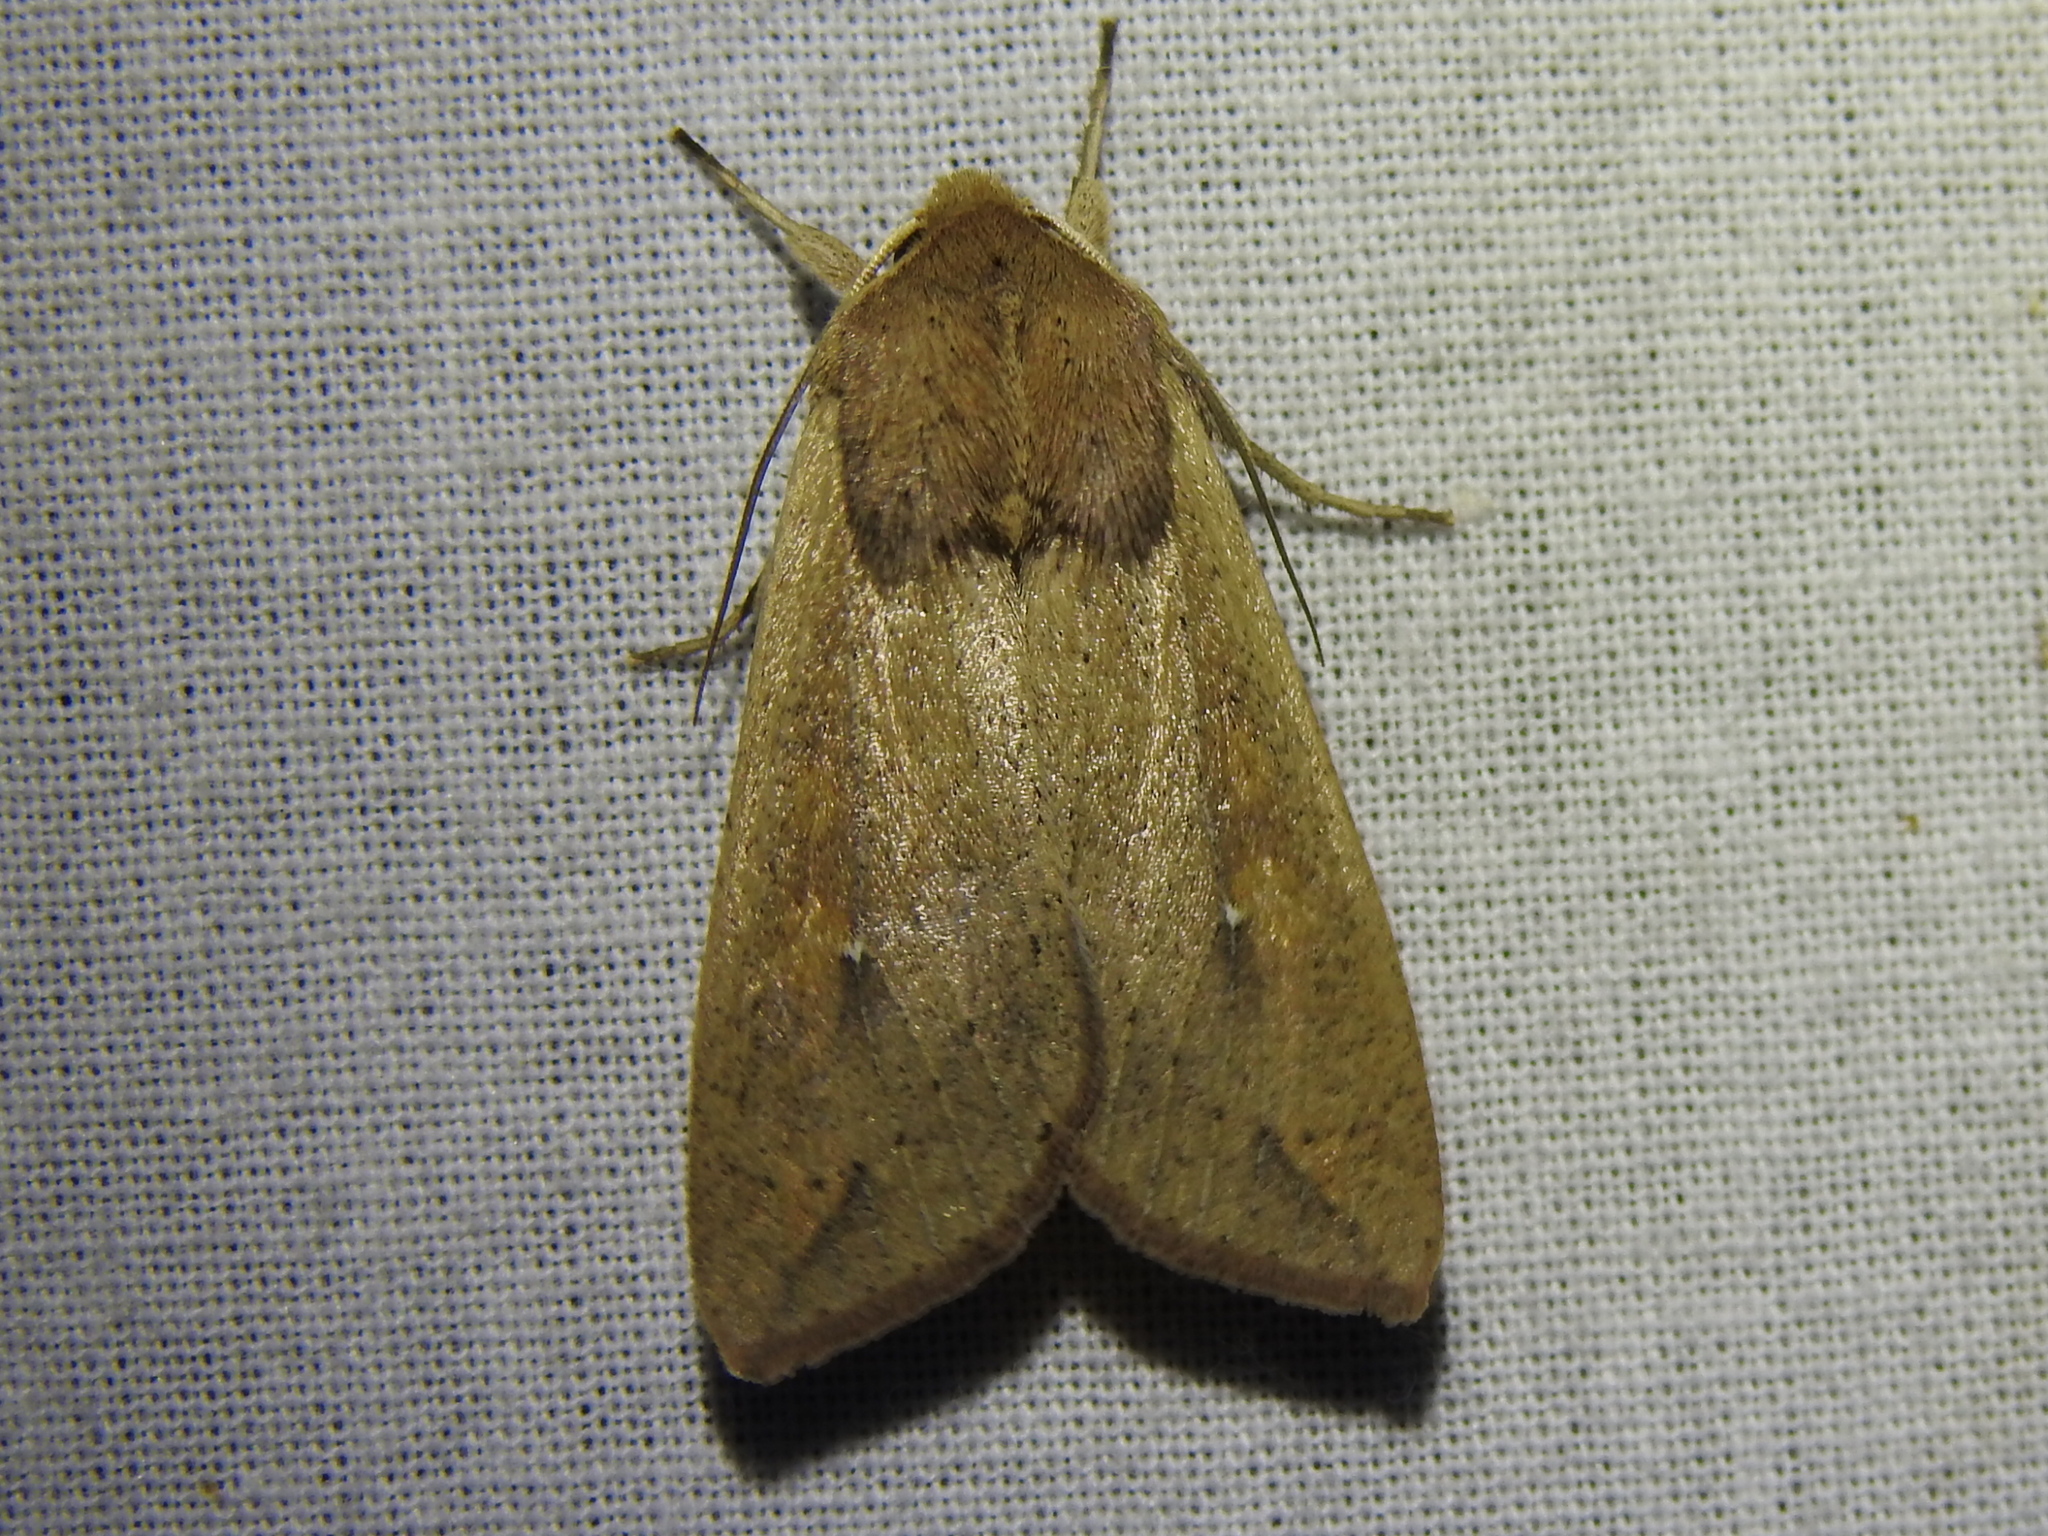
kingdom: Animalia
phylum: Arthropoda
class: Insecta
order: Lepidoptera
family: Noctuidae
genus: Mythimna
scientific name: Mythimna unipuncta
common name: White-speck
